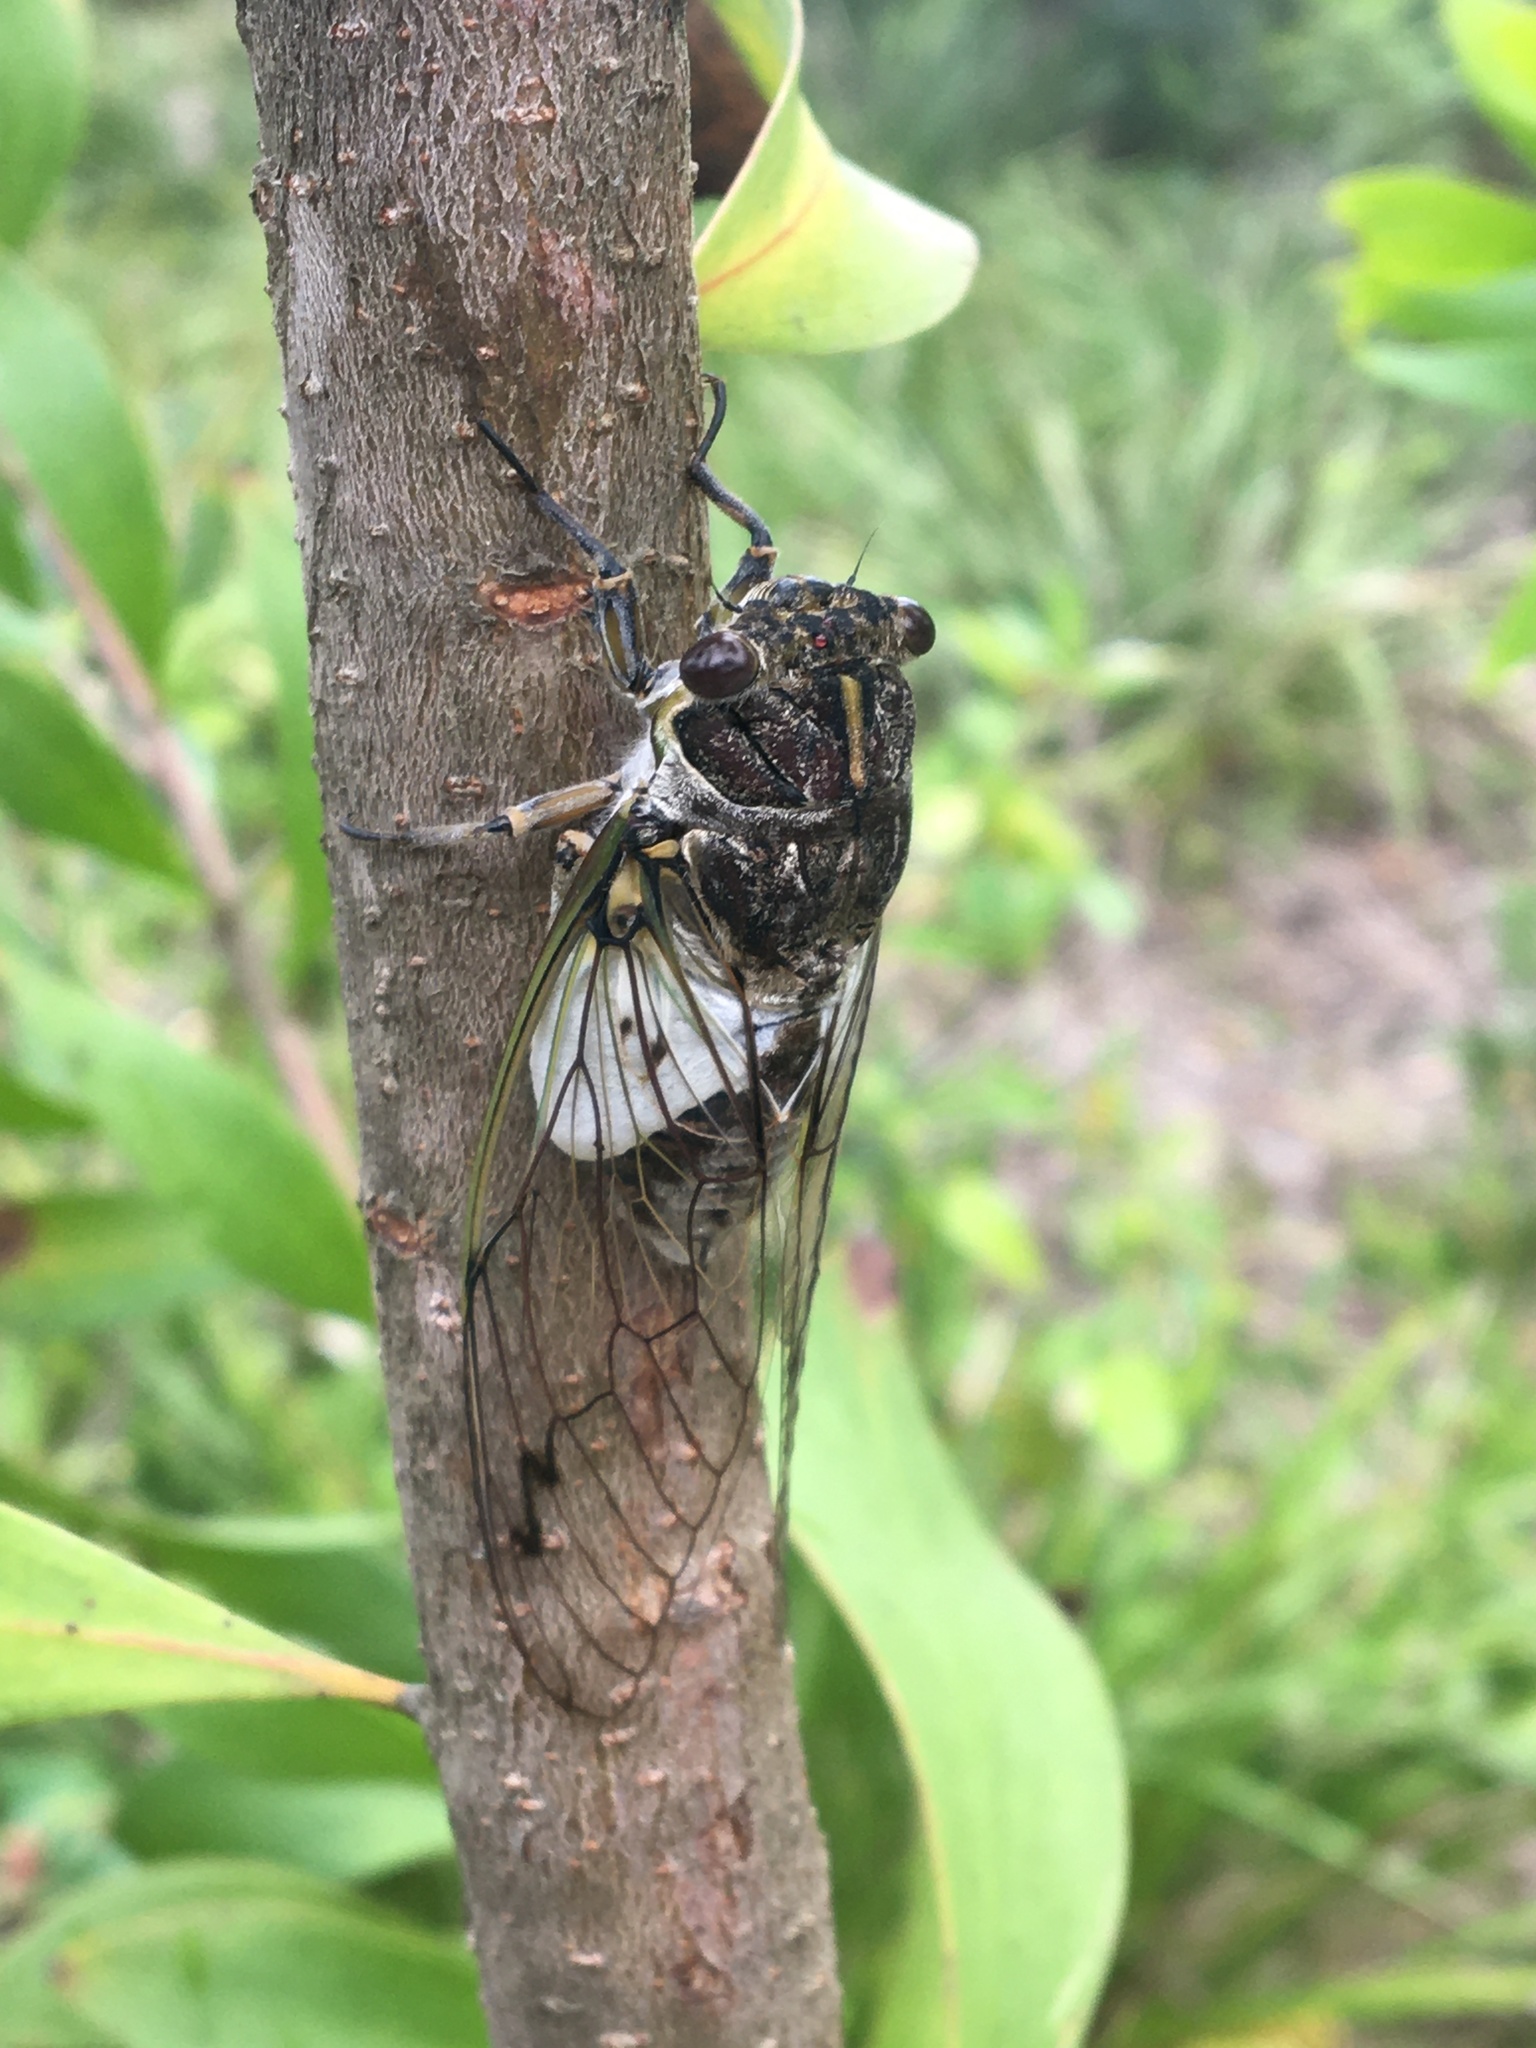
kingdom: Animalia
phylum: Arthropoda
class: Insecta
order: Hemiptera
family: Cicadidae
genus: Arunta
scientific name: Arunta perulata
